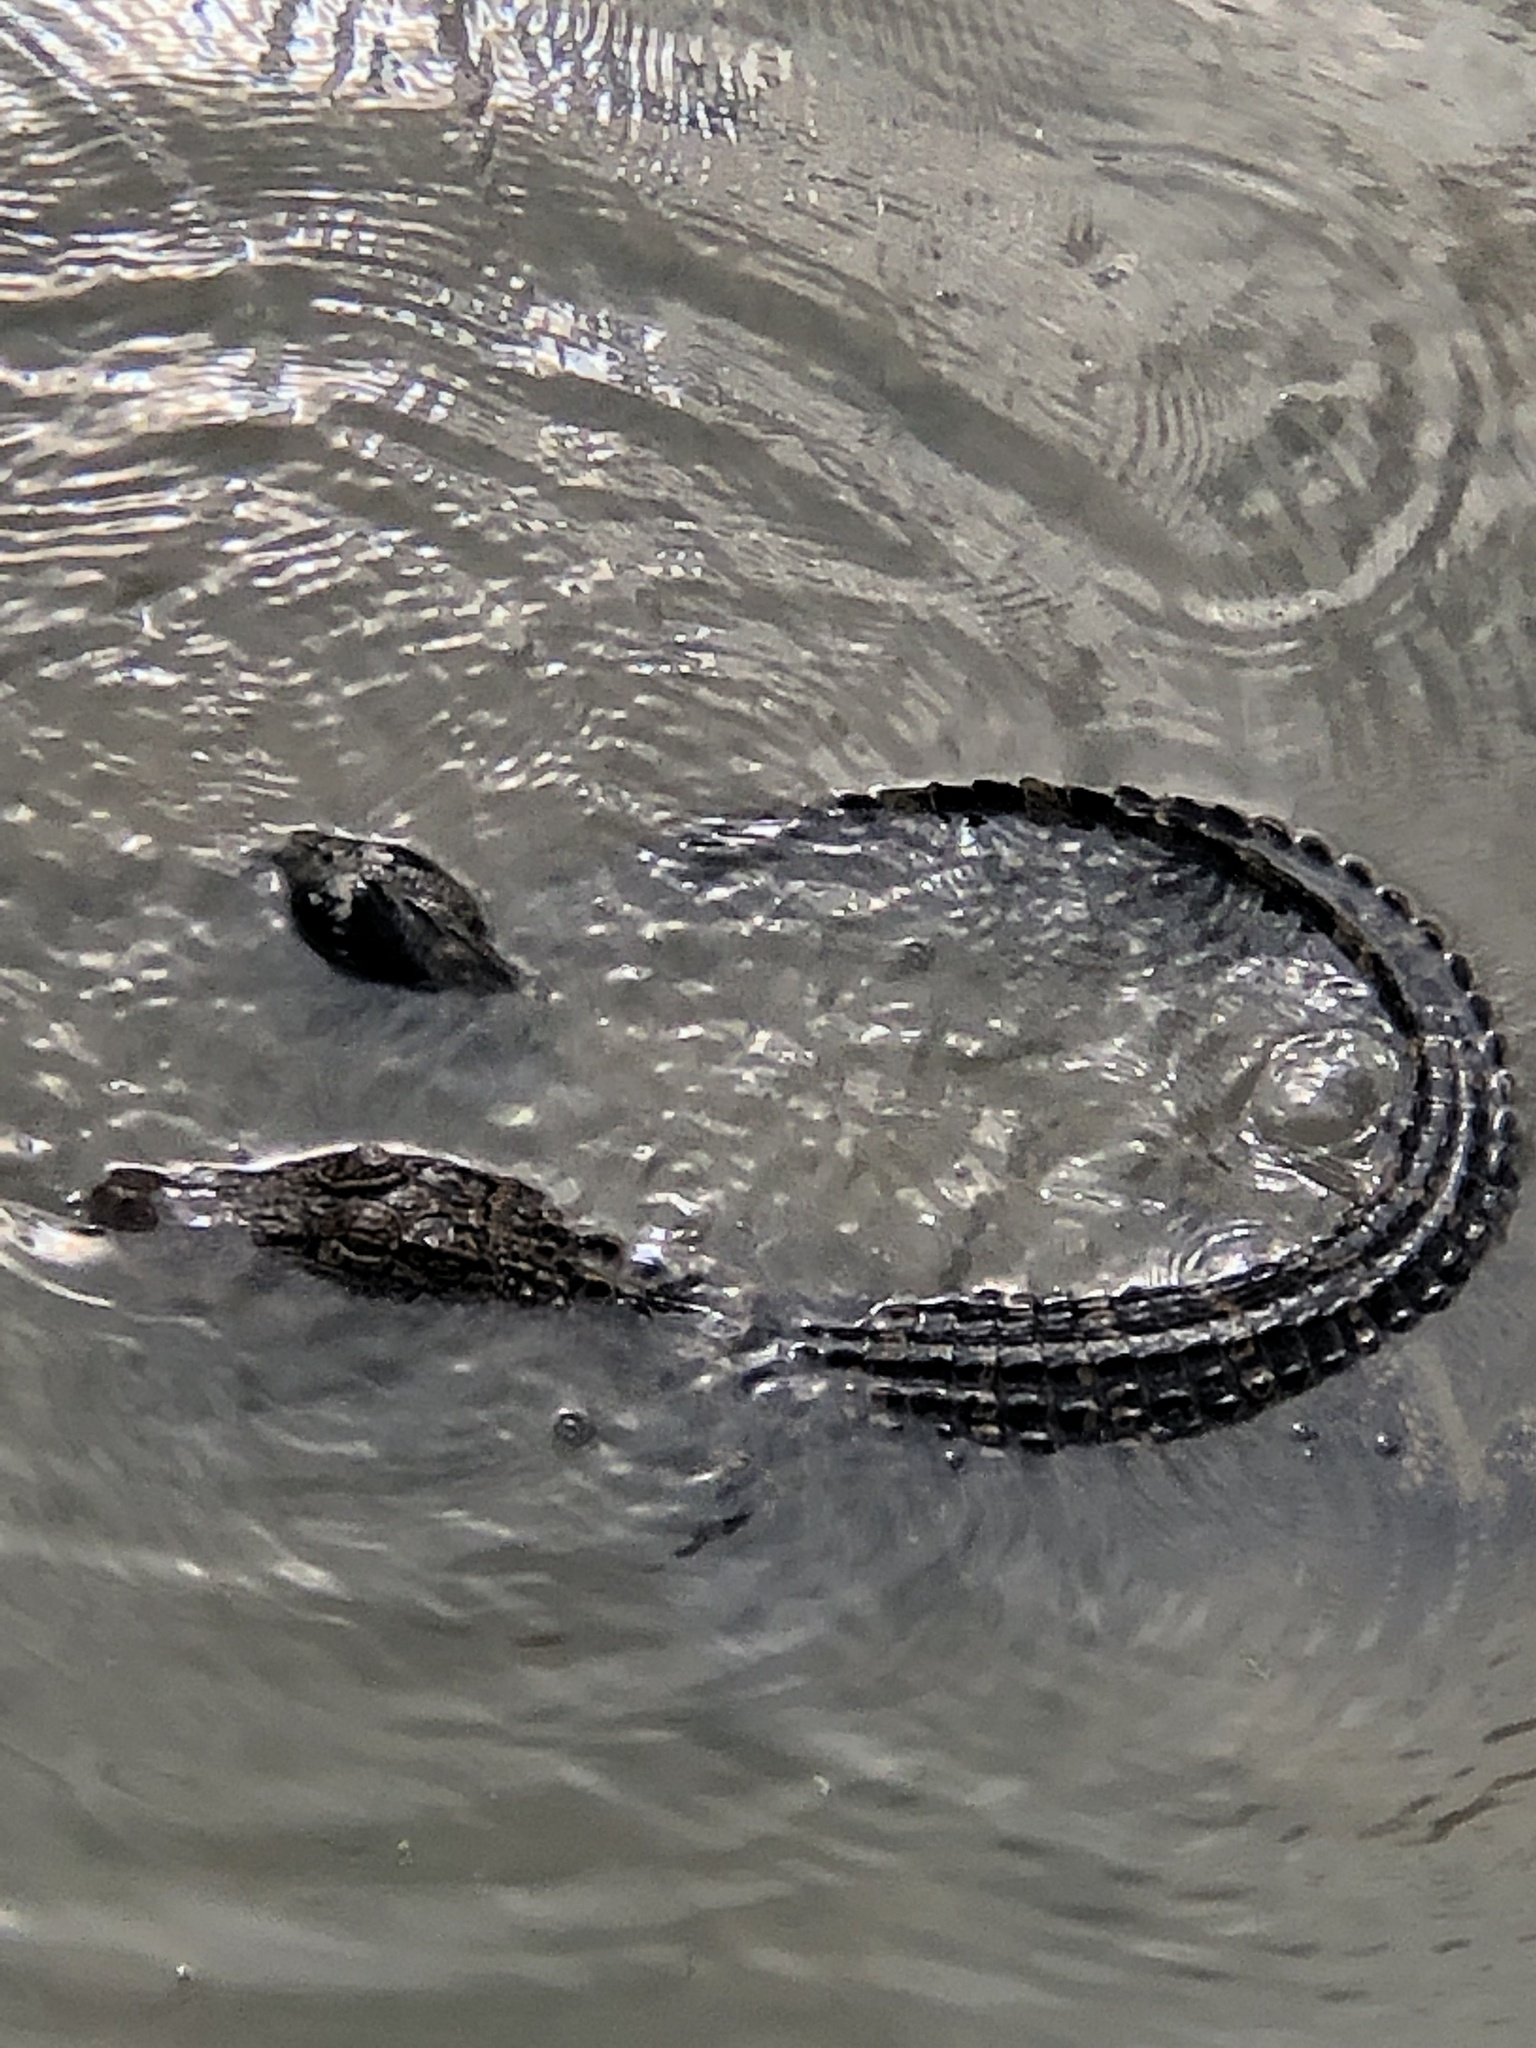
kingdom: Animalia
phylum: Mollusca
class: Bivalvia
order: Unionida
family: Unionidae
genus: Pyganodon
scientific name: Pyganodon grandis
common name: Giant floater
